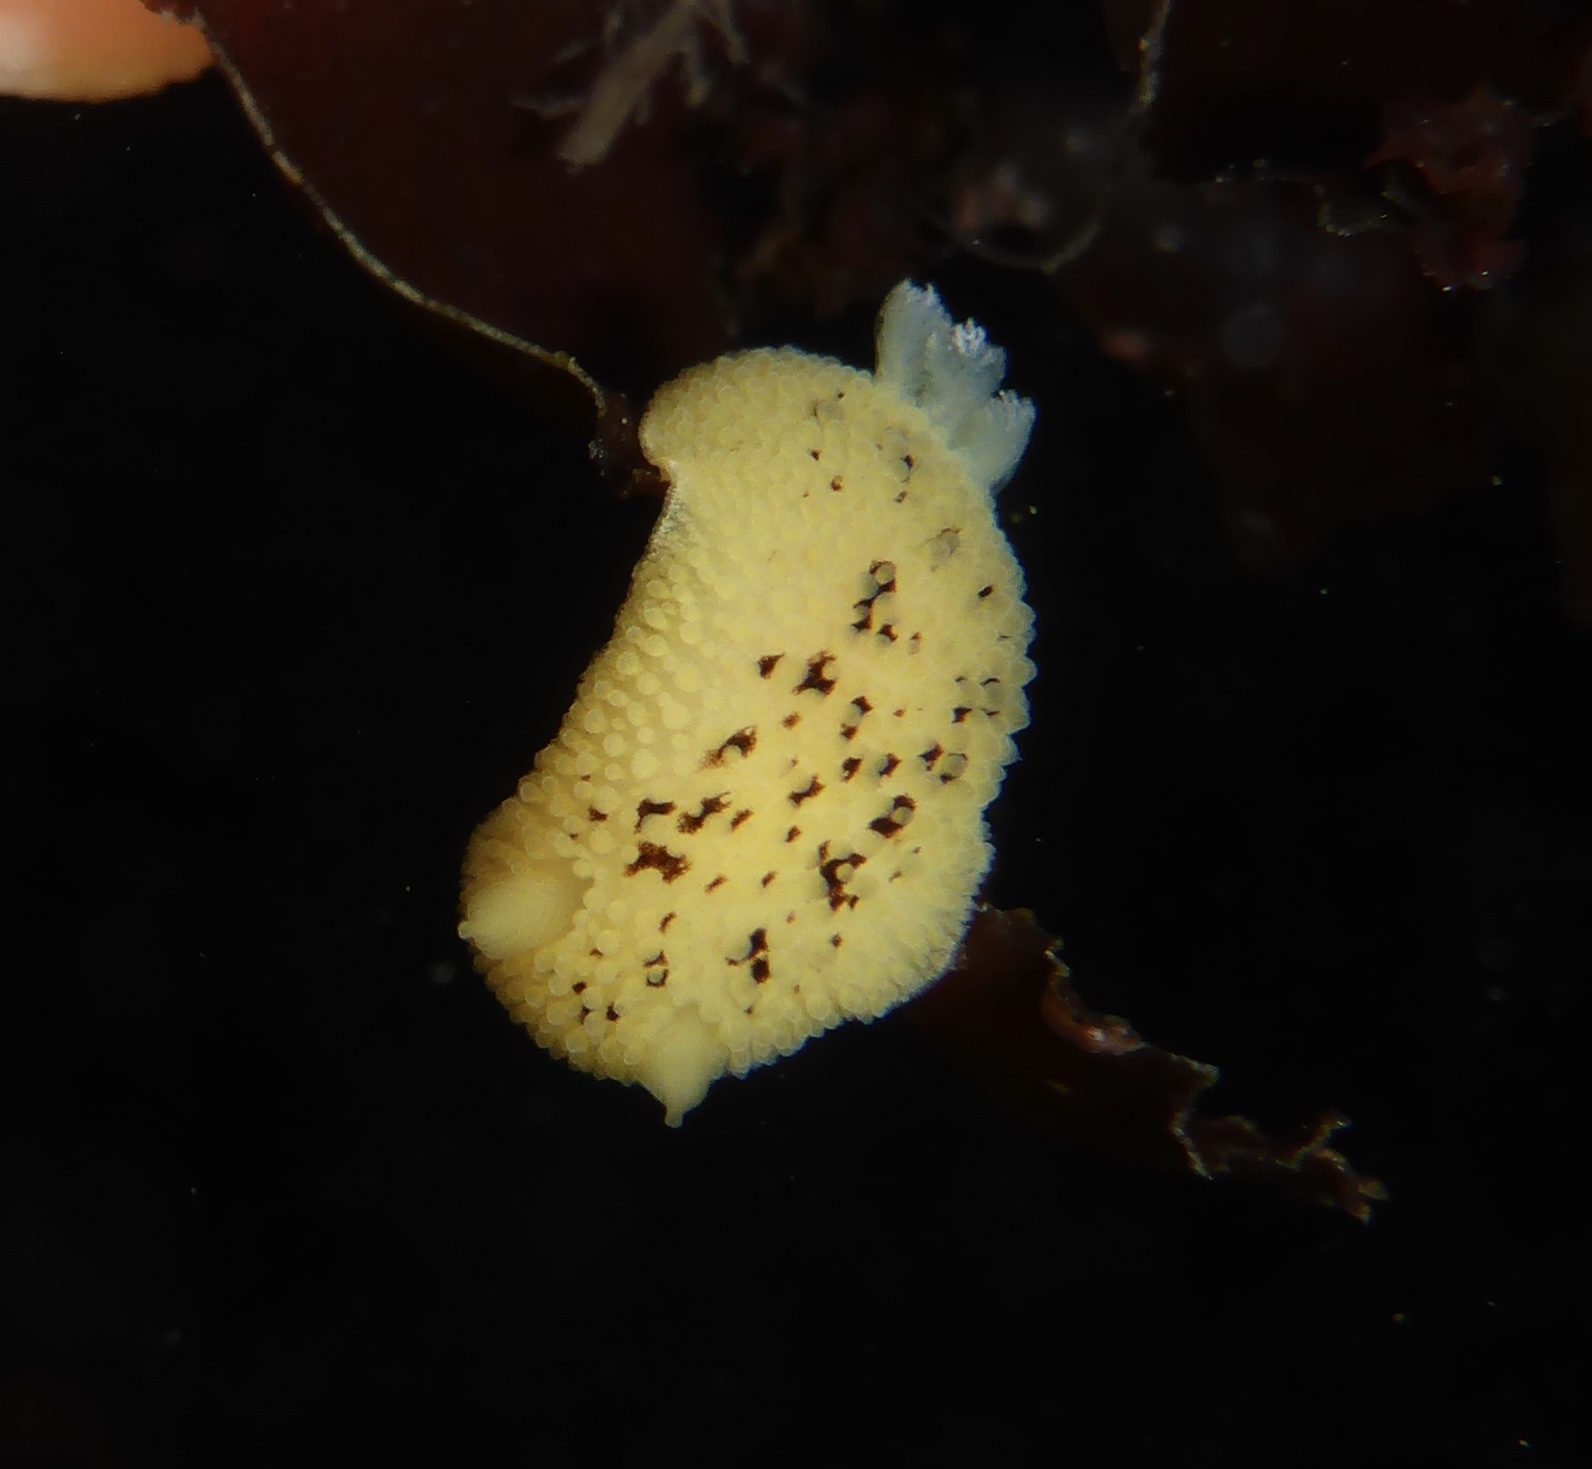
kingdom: Animalia
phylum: Mollusca
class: Gastropoda
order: Nudibranchia
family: Discodorididae
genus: Peltodoris
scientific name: Peltodoris nobilis
